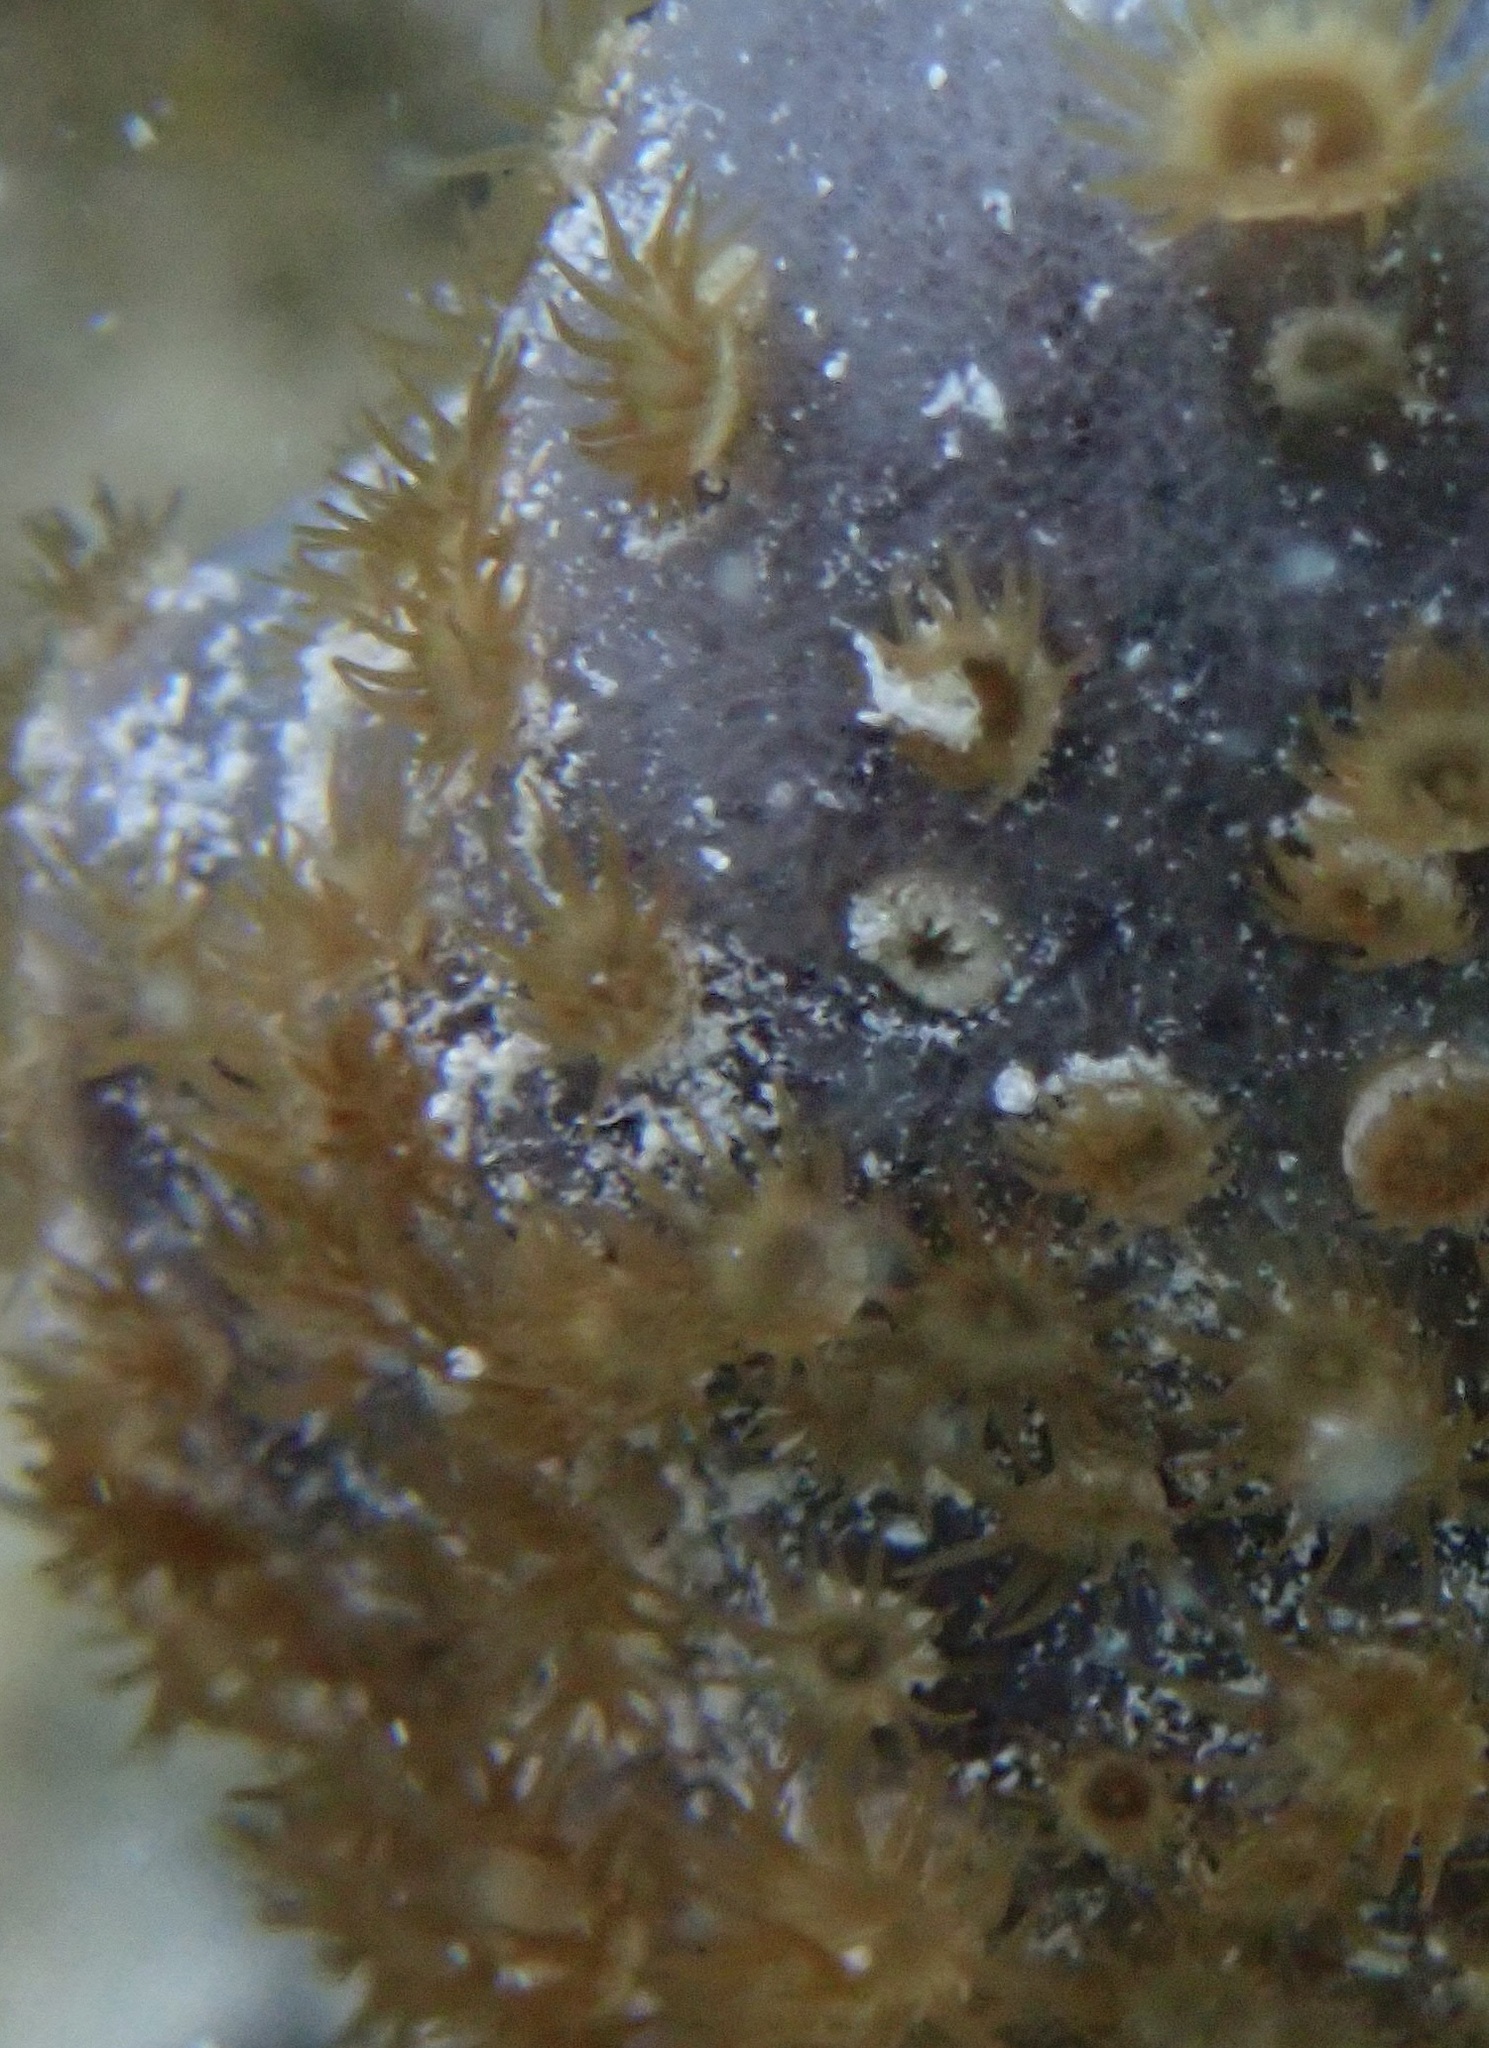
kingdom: Animalia
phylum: Cnidaria
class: Anthozoa
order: Zoantharia
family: Parazoanthidae
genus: Umimayanthus
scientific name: Umimayanthus parasiticus
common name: Sponge zoanthid
